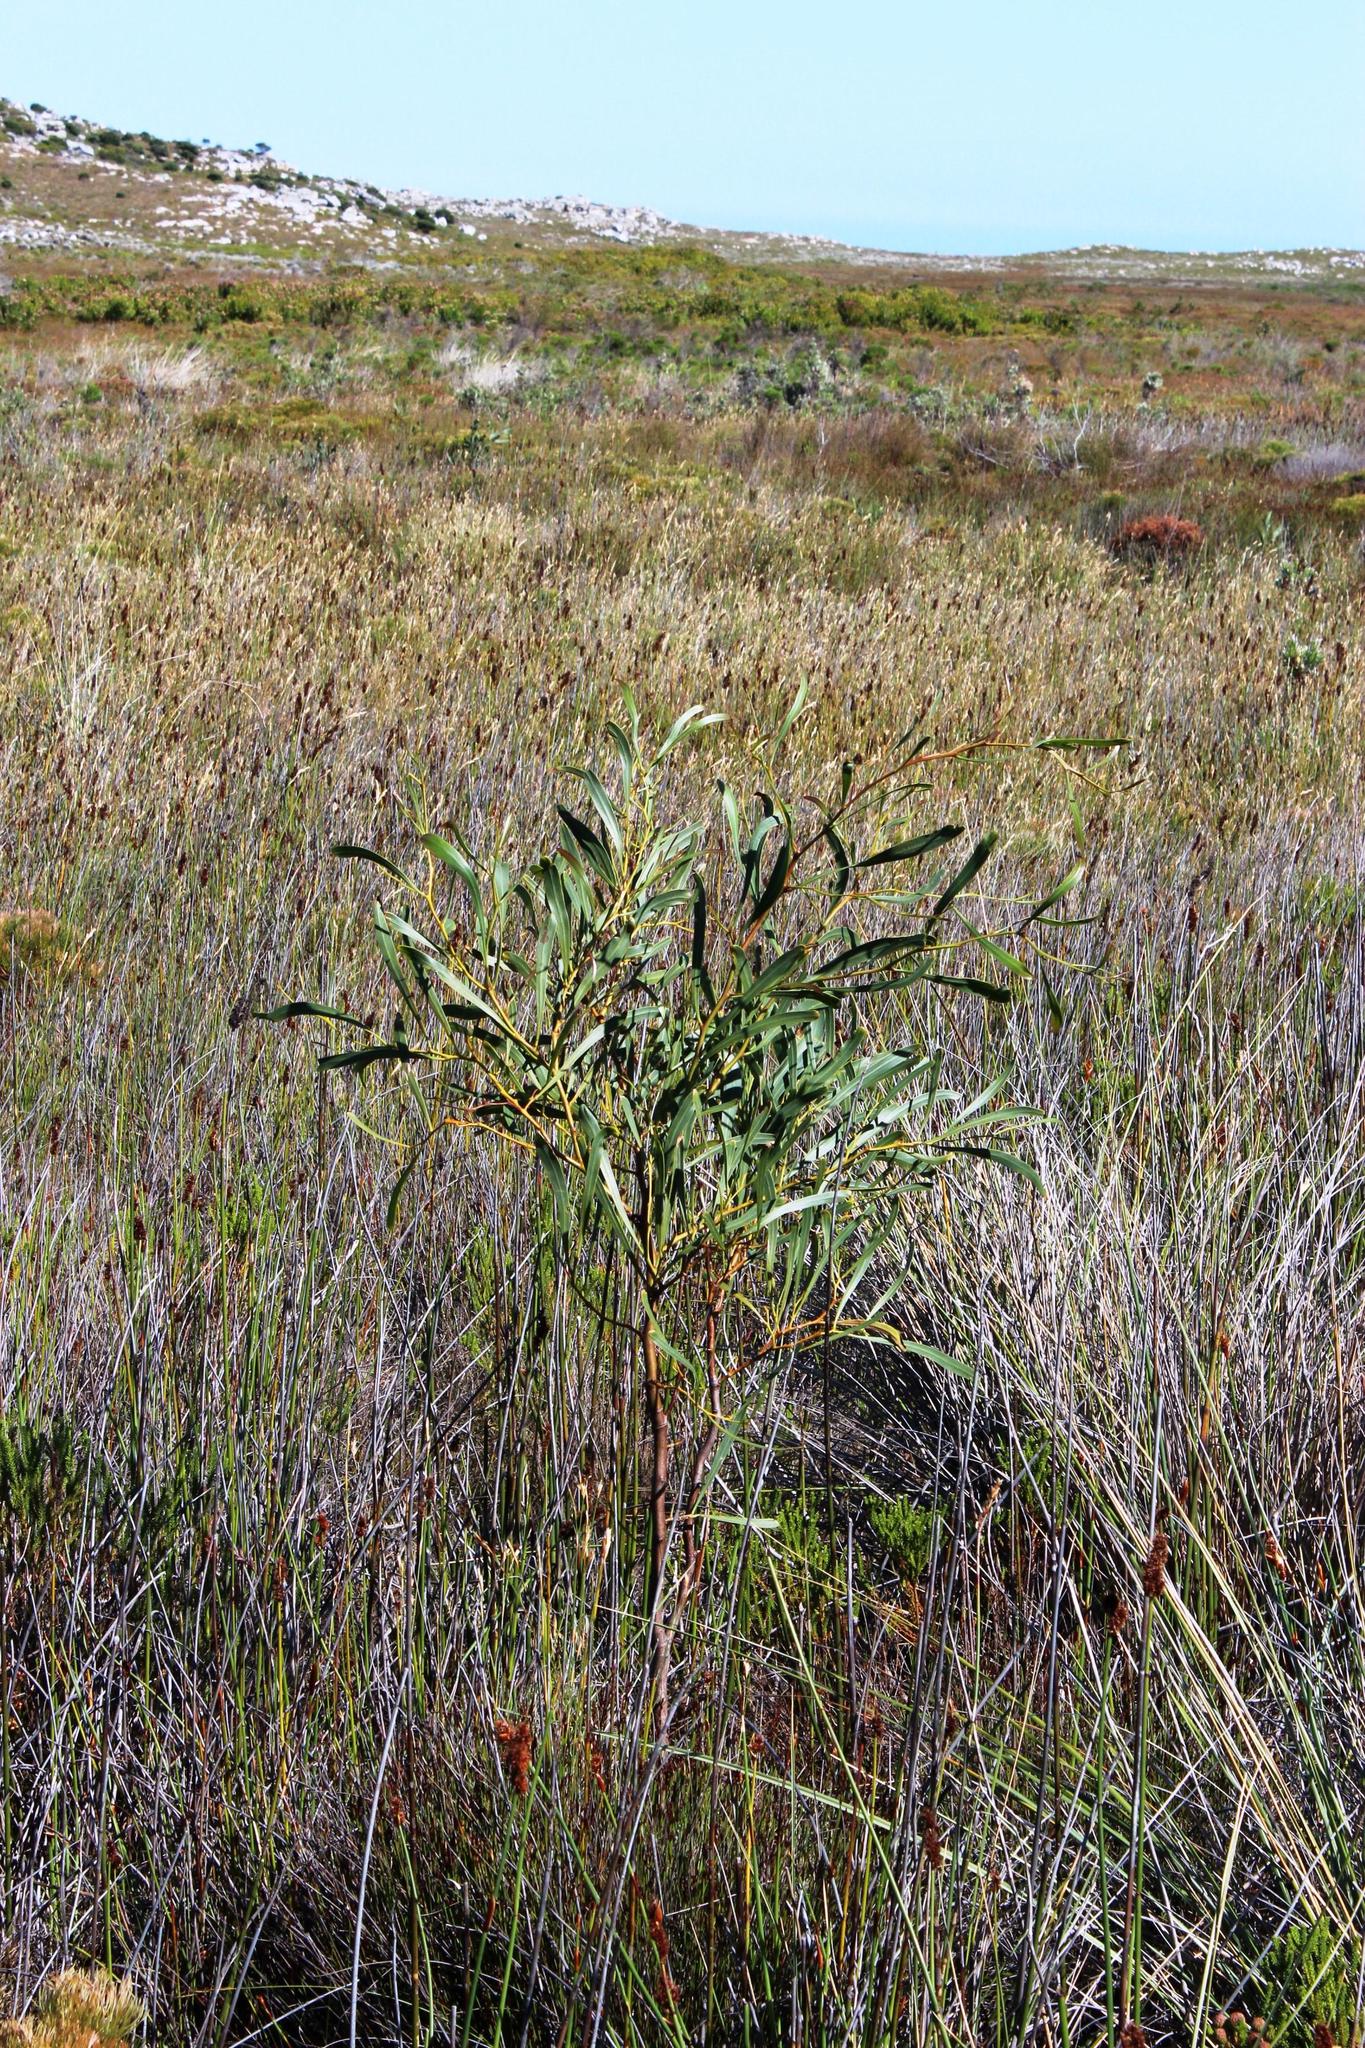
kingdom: Plantae
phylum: Tracheophyta
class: Magnoliopsida
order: Fabales
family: Fabaceae
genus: Acacia
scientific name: Acacia saligna
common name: Orange wattle
